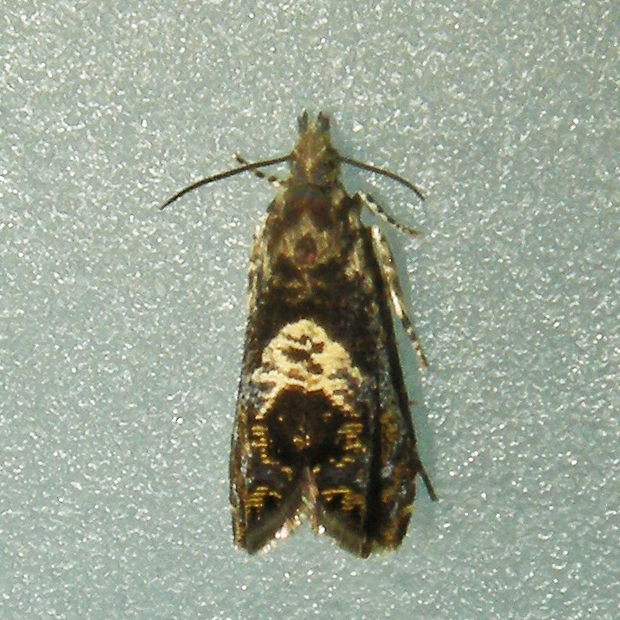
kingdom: Animalia
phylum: Arthropoda
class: Insecta
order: Lepidoptera
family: Tortricidae
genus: Dichrorampha
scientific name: Dichrorampha incanana
